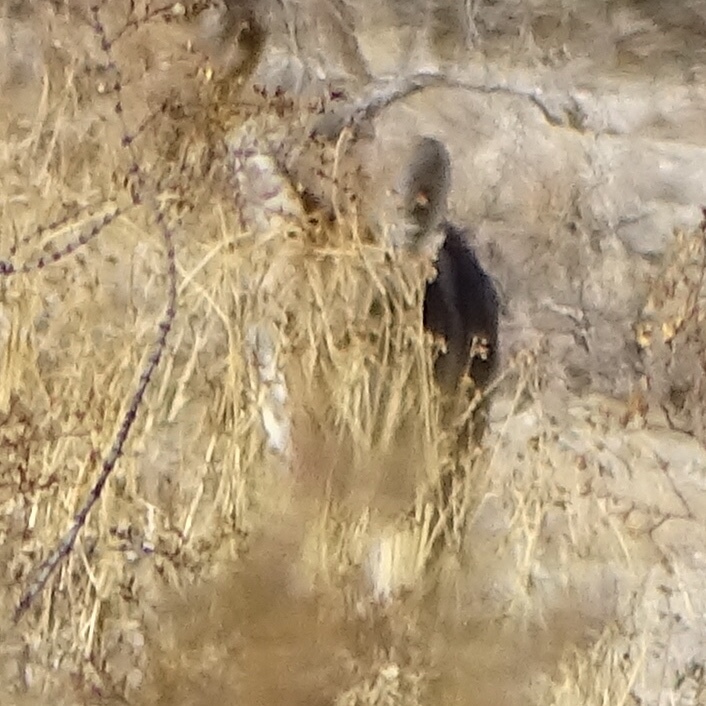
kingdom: Animalia
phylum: Chordata
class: Mammalia
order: Carnivora
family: Canidae
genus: Canis
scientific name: Canis latrans
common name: Coyote
